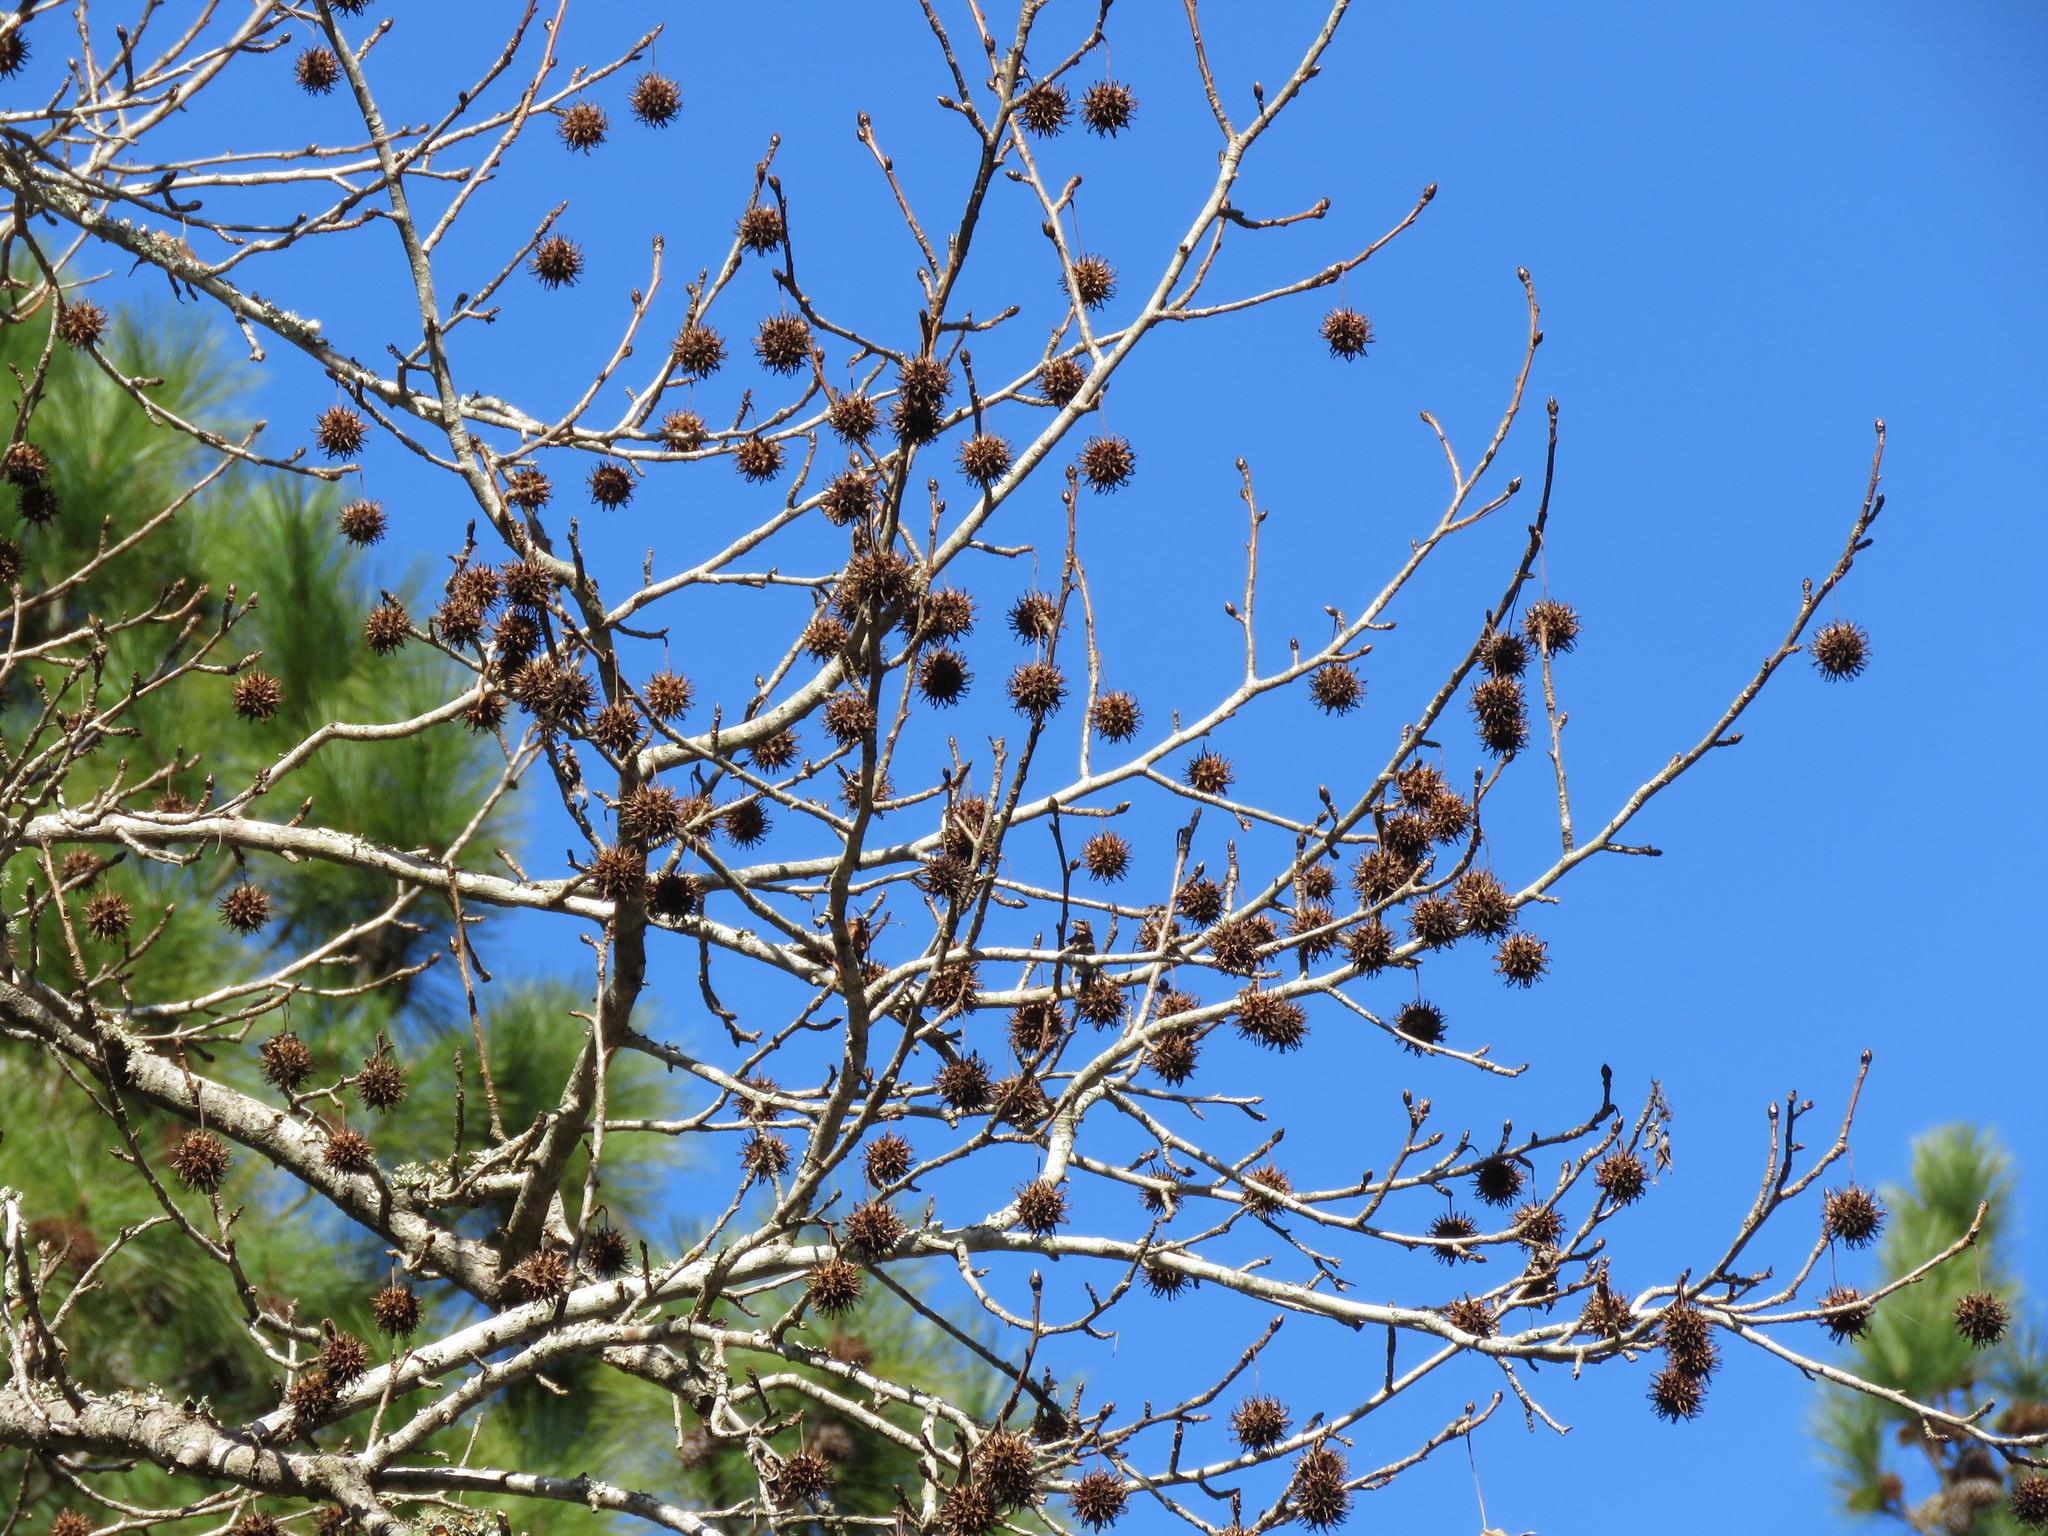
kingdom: Plantae
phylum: Tracheophyta
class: Magnoliopsida
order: Saxifragales
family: Altingiaceae
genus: Liquidambar
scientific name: Liquidambar styraciflua
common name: Sweet gum
